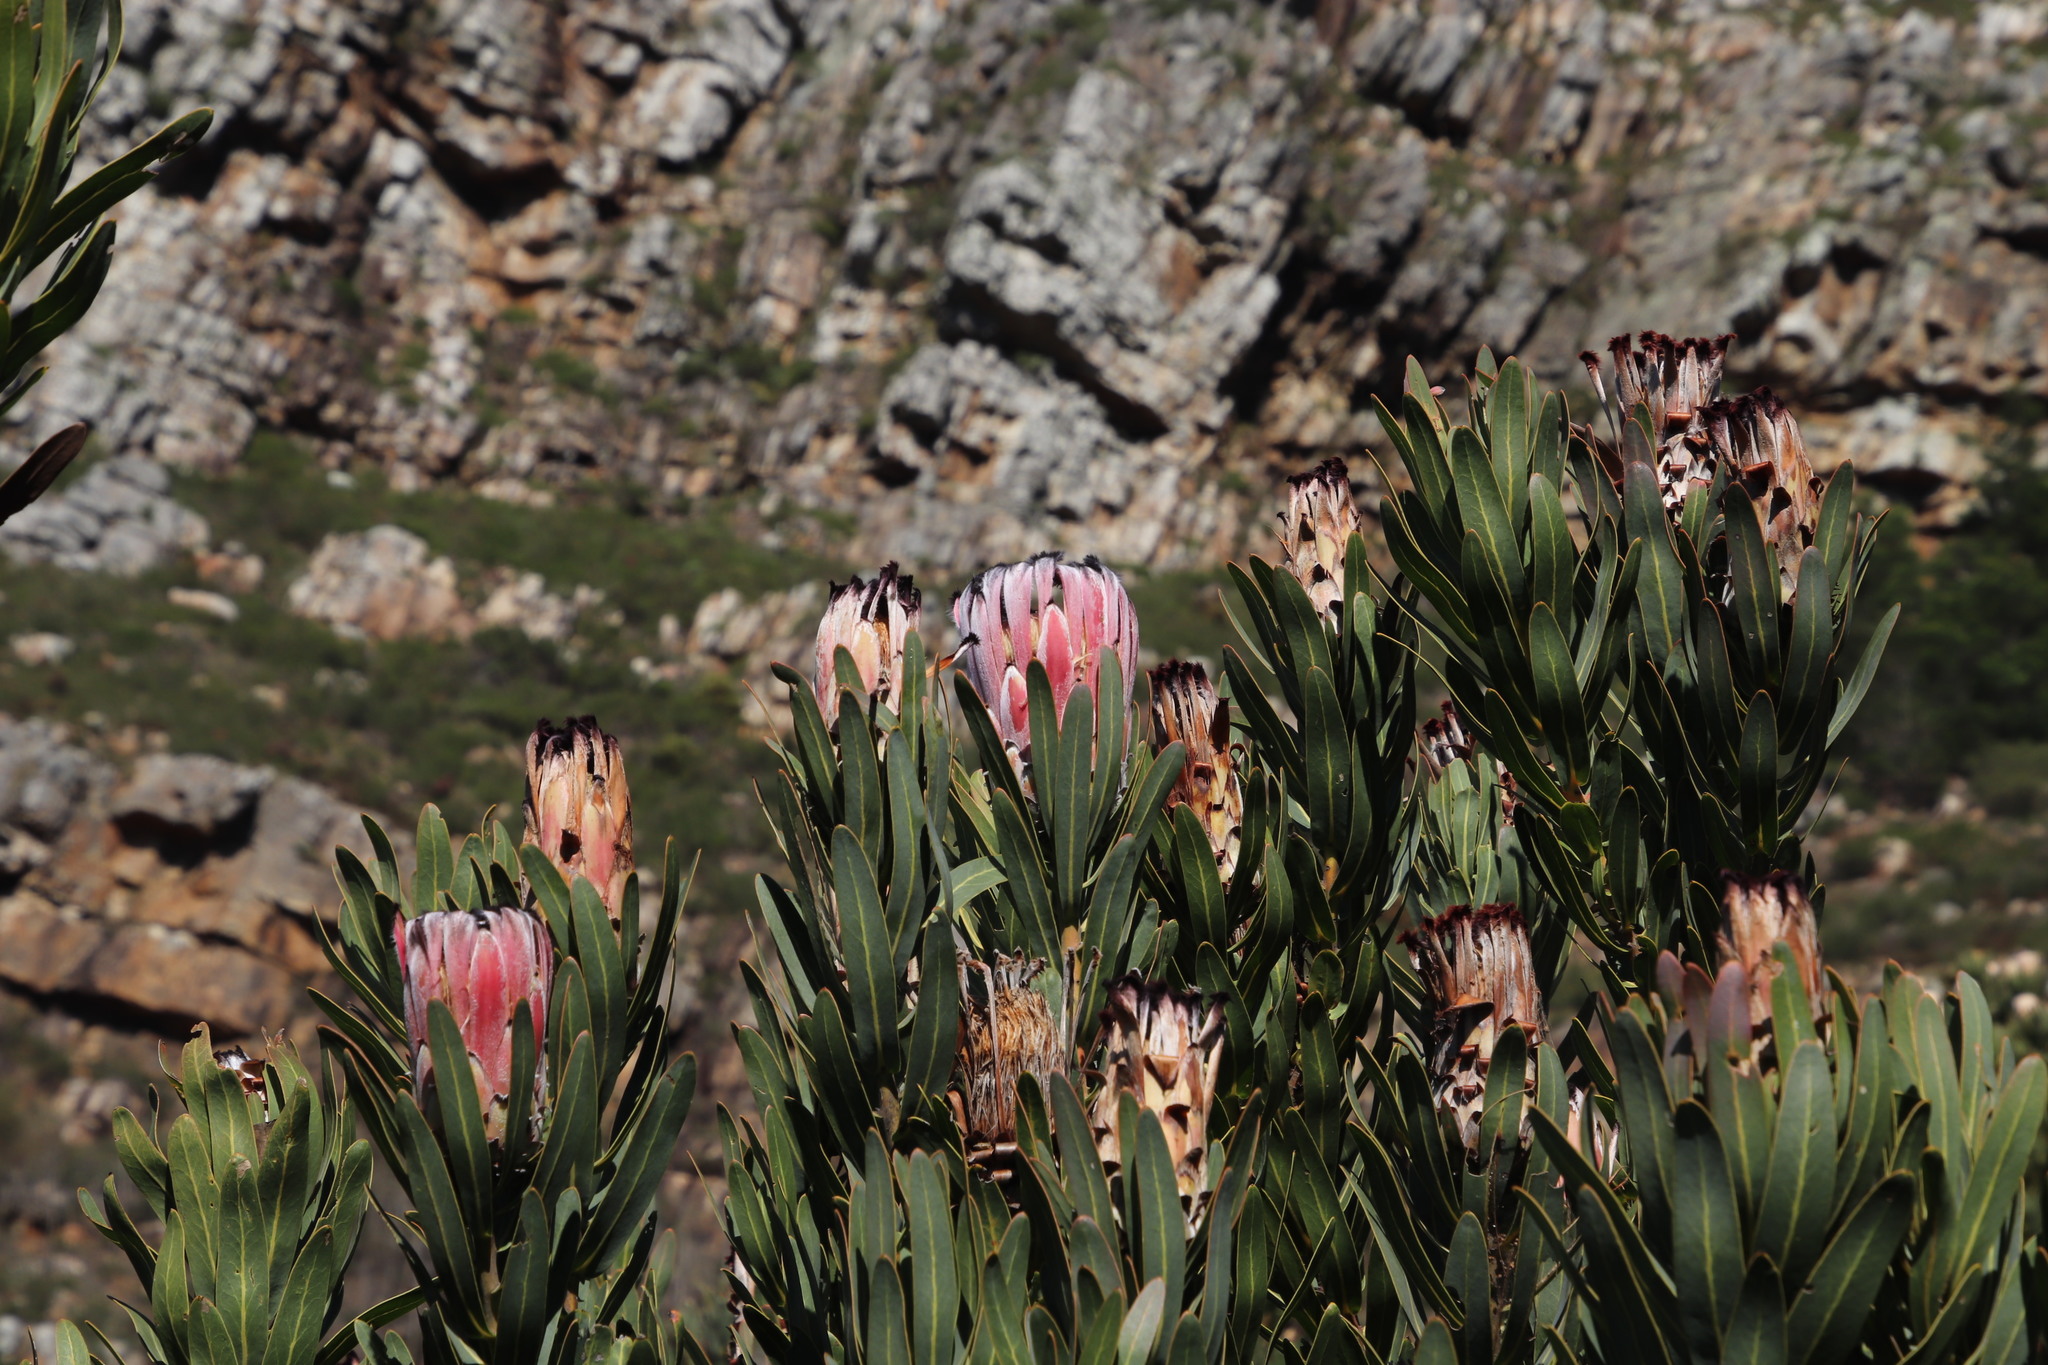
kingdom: Plantae
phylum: Tracheophyta
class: Magnoliopsida
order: Proteales
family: Proteaceae
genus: Protea
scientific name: Protea
